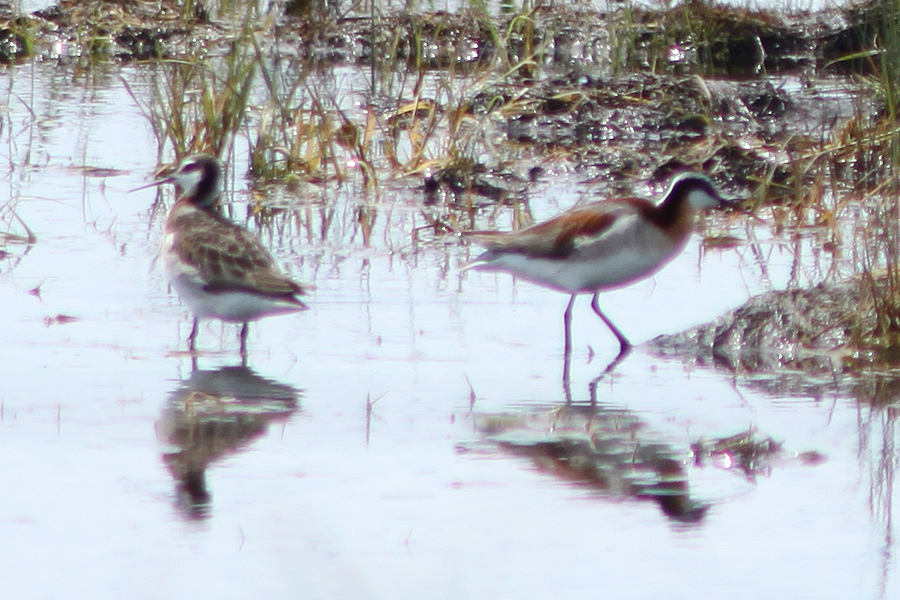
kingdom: Animalia
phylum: Chordata
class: Aves
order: Charadriiformes
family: Scolopacidae
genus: Phalaropus
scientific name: Phalaropus tricolor
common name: Wilson's phalarope
